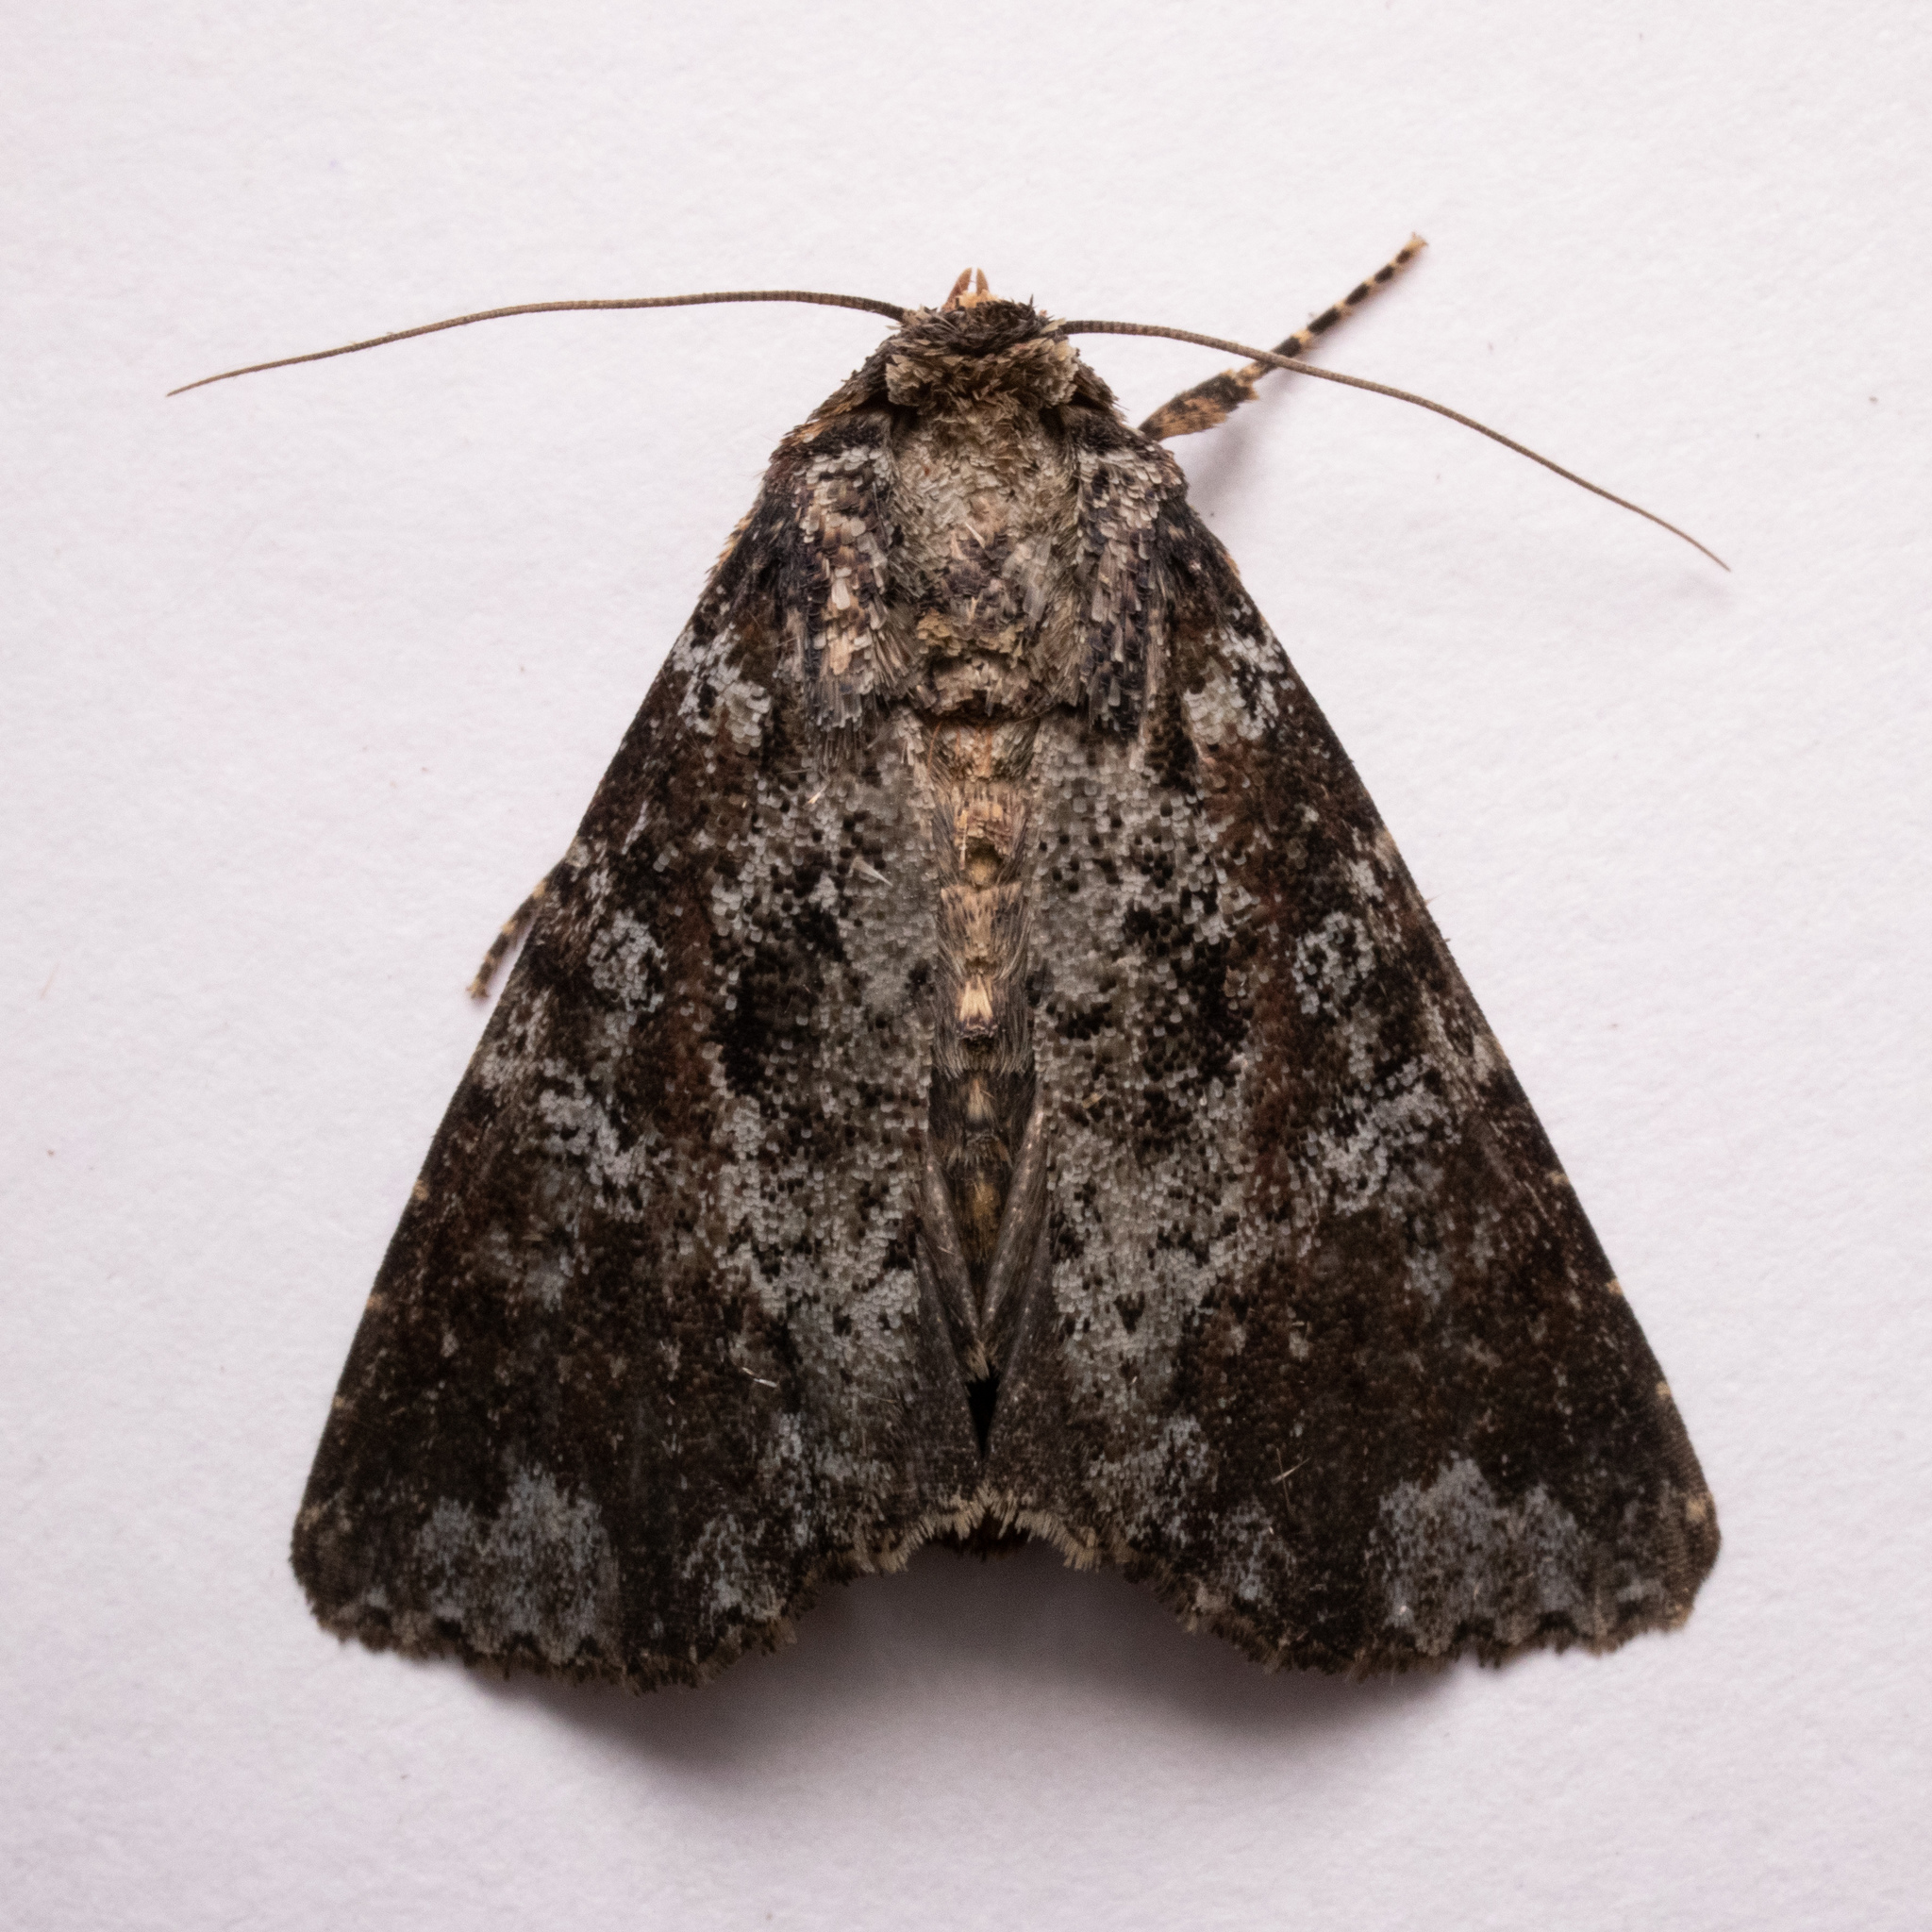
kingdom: Animalia
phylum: Arthropoda
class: Insecta
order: Lepidoptera
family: Noctuidae
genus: Condica
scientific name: Condica confederata
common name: The confederate
